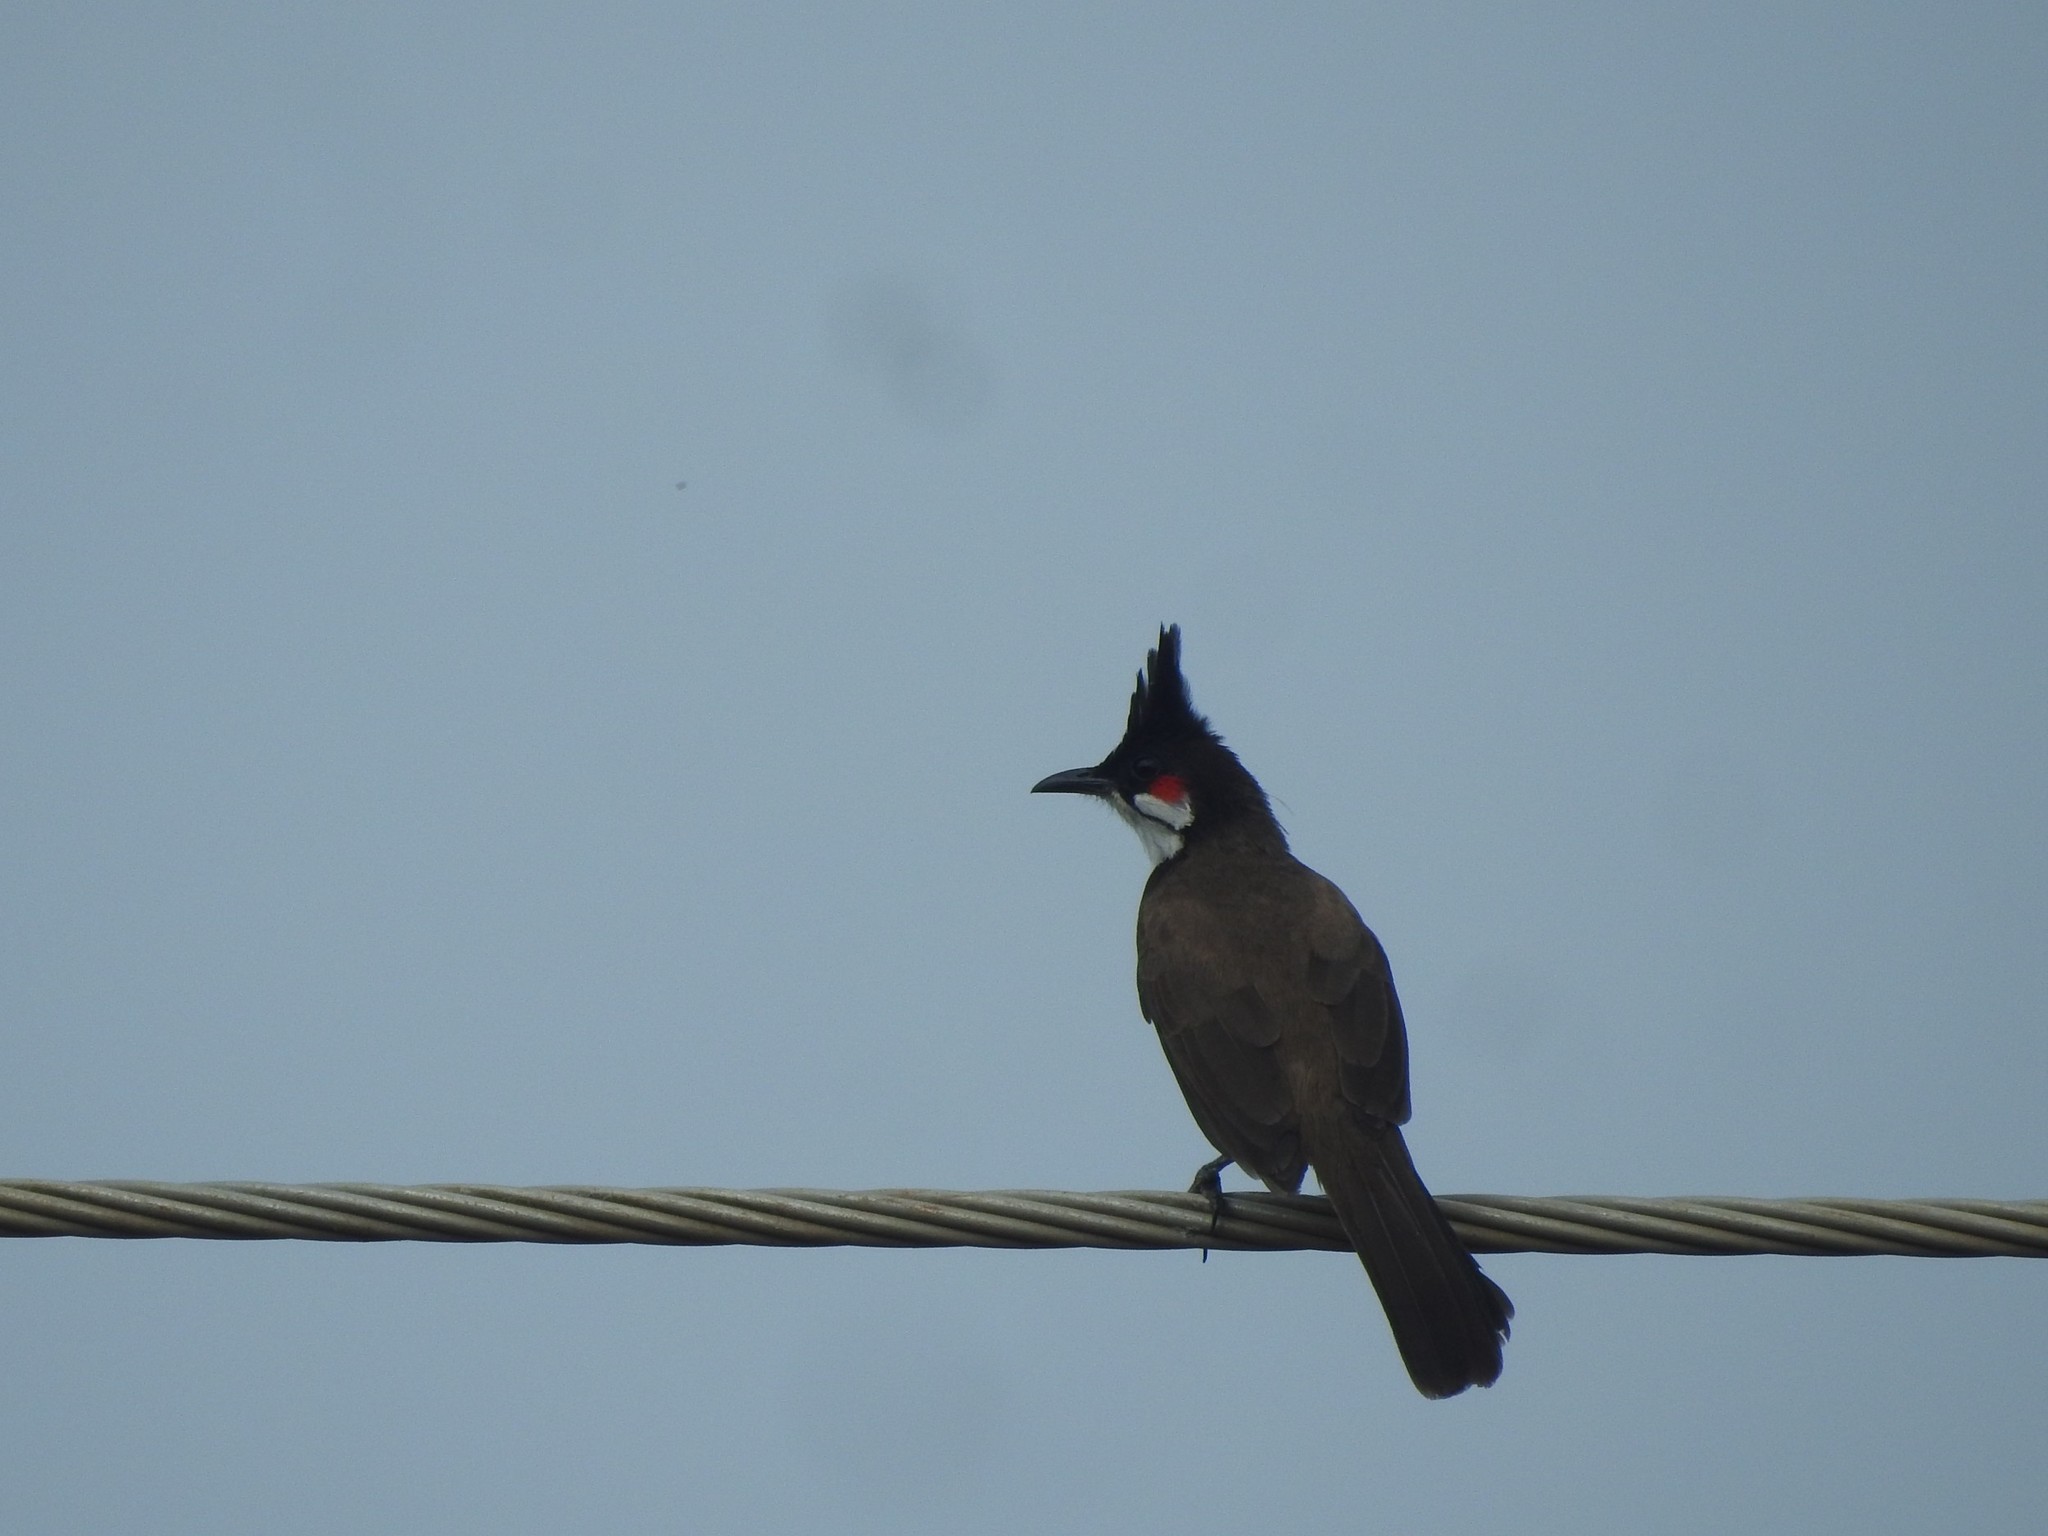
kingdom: Animalia
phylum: Chordata
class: Aves
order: Passeriformes
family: Pycnonotidae
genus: Pycnonotus
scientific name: Pycnonotus jocosus
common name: Red-whiskered bulbul
